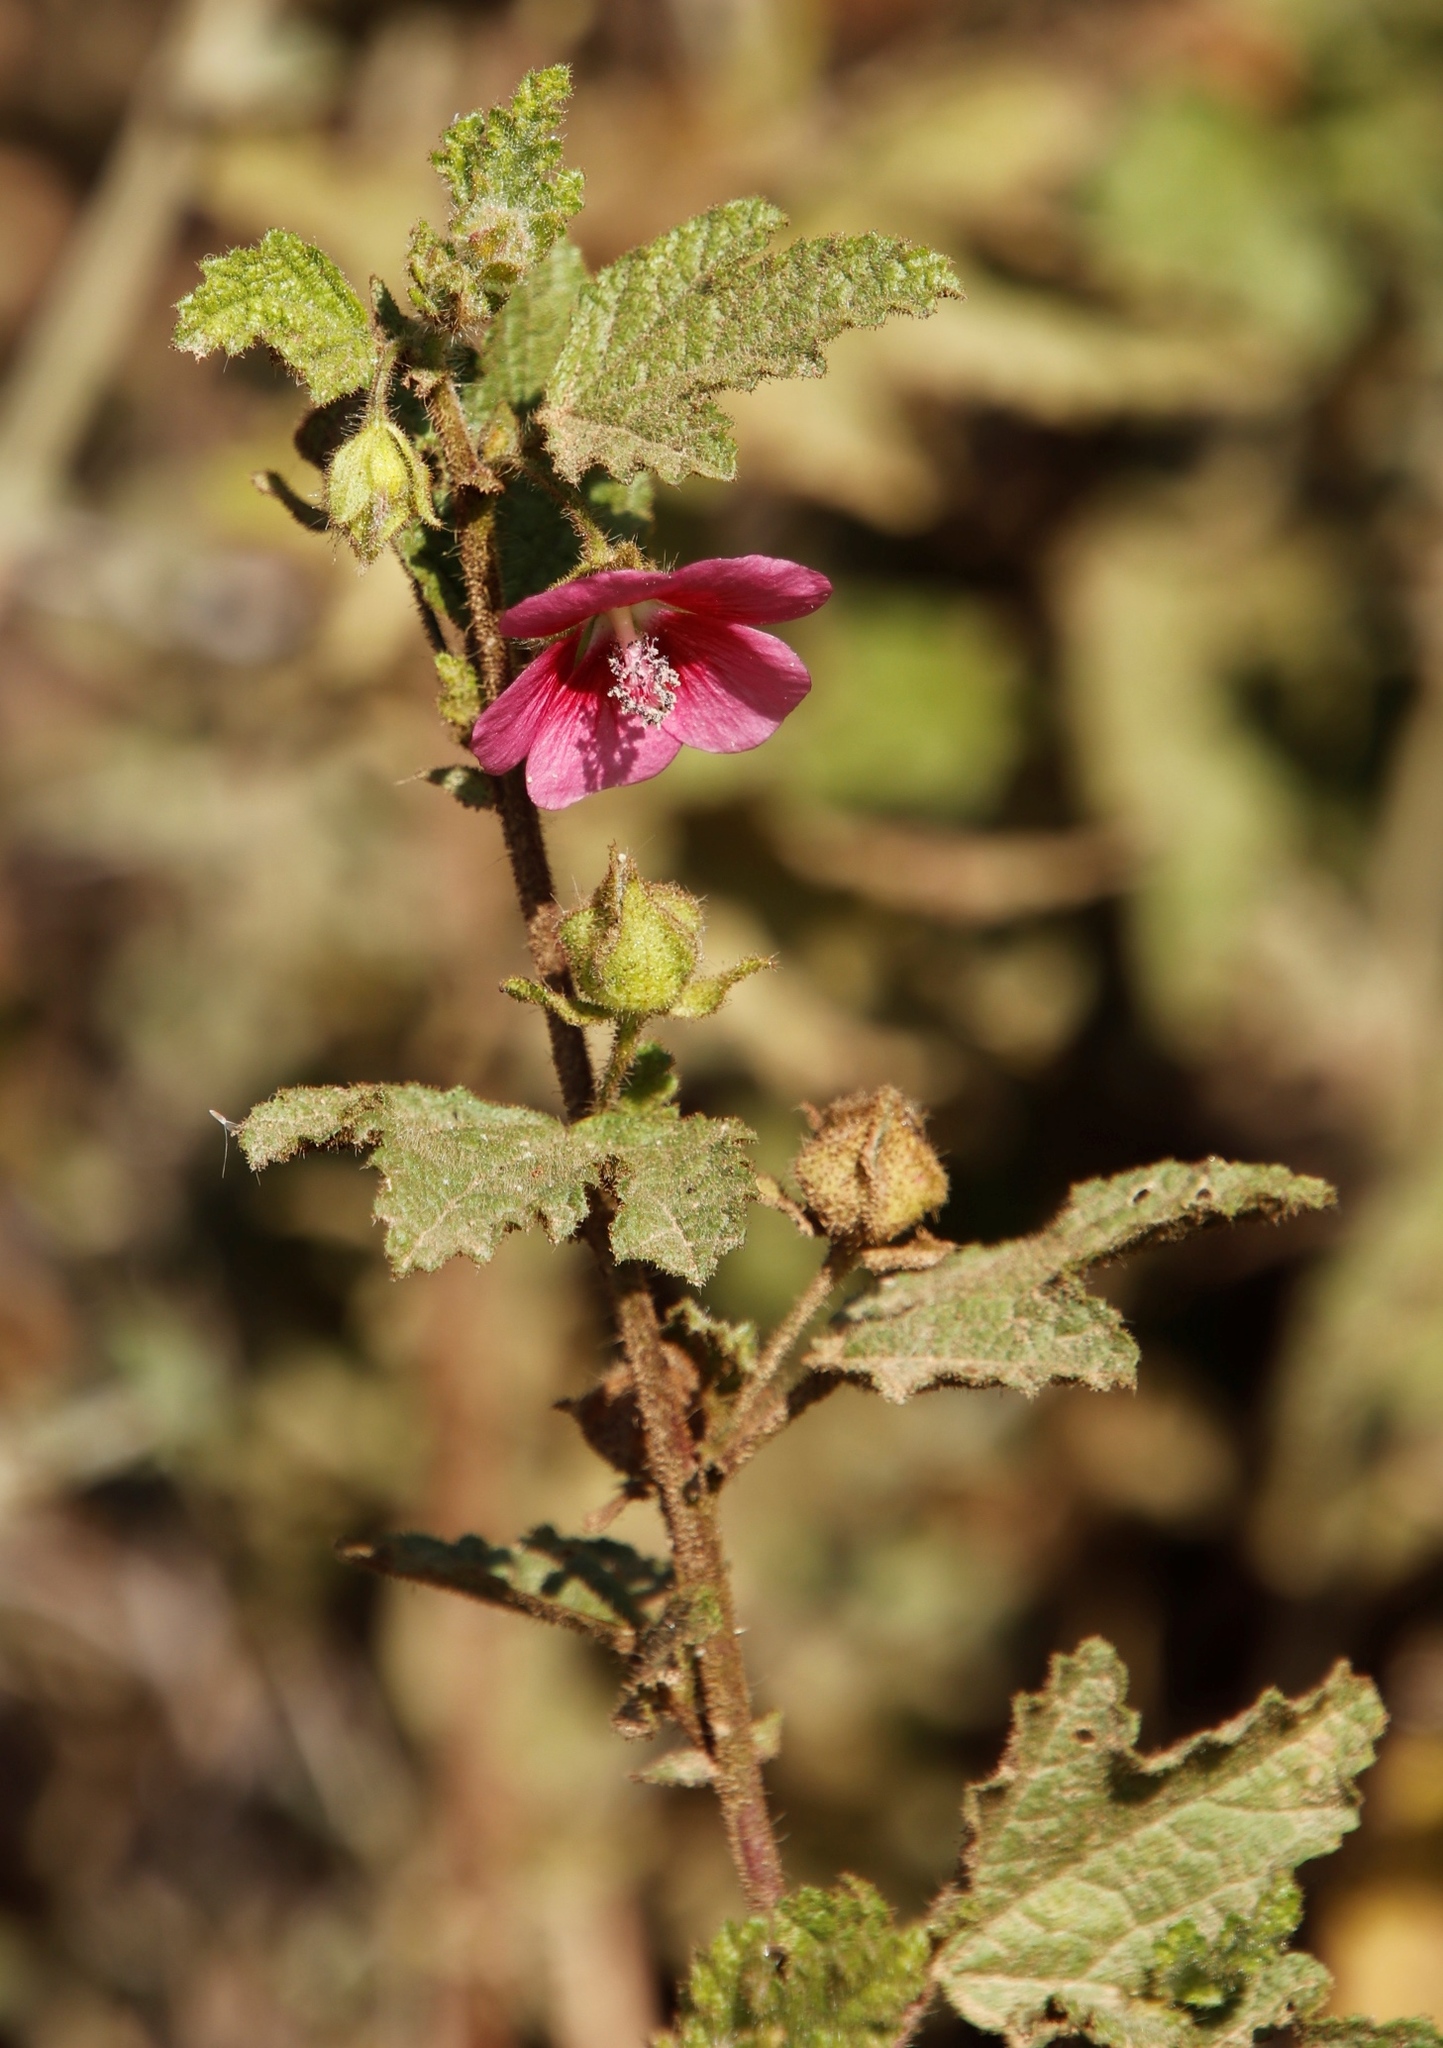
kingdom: Plantae
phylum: Tracheophyta
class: Magnoliopsida
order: Malvales
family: Malvaceae
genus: Anisodontea
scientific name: Anisodontea scabrosa
